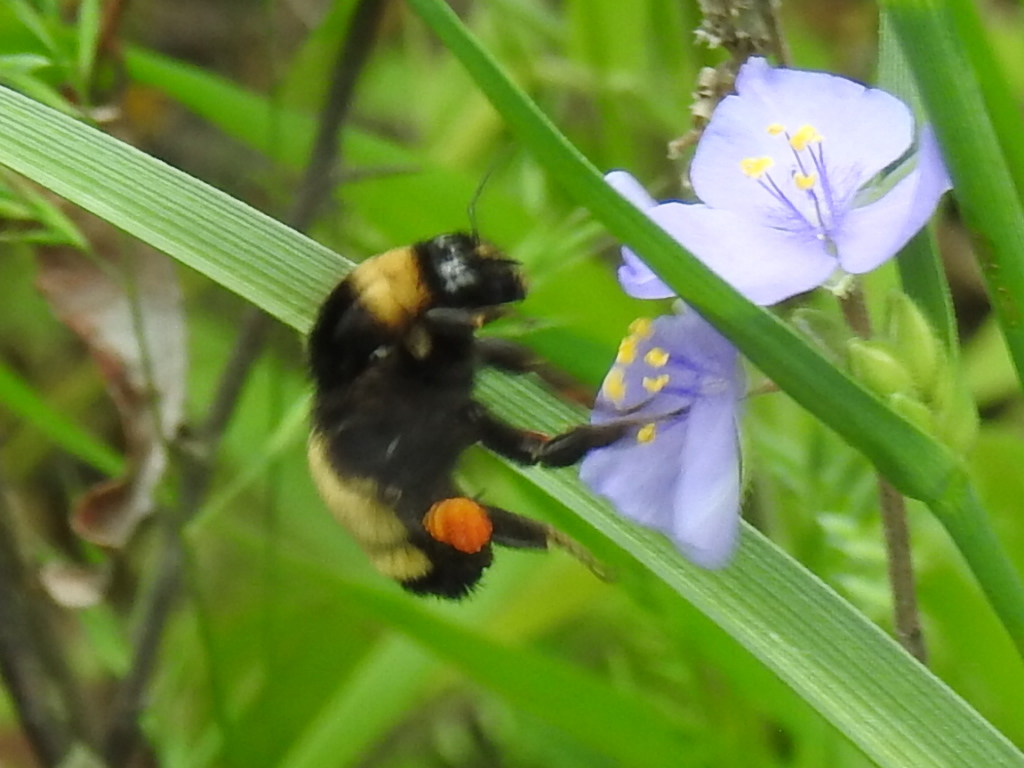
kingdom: Animalia
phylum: Arthropoda
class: Insecta
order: Hymenoptera
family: Apidae
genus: Bombus
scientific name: Bombus pensylvanicus
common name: Bumble bee
